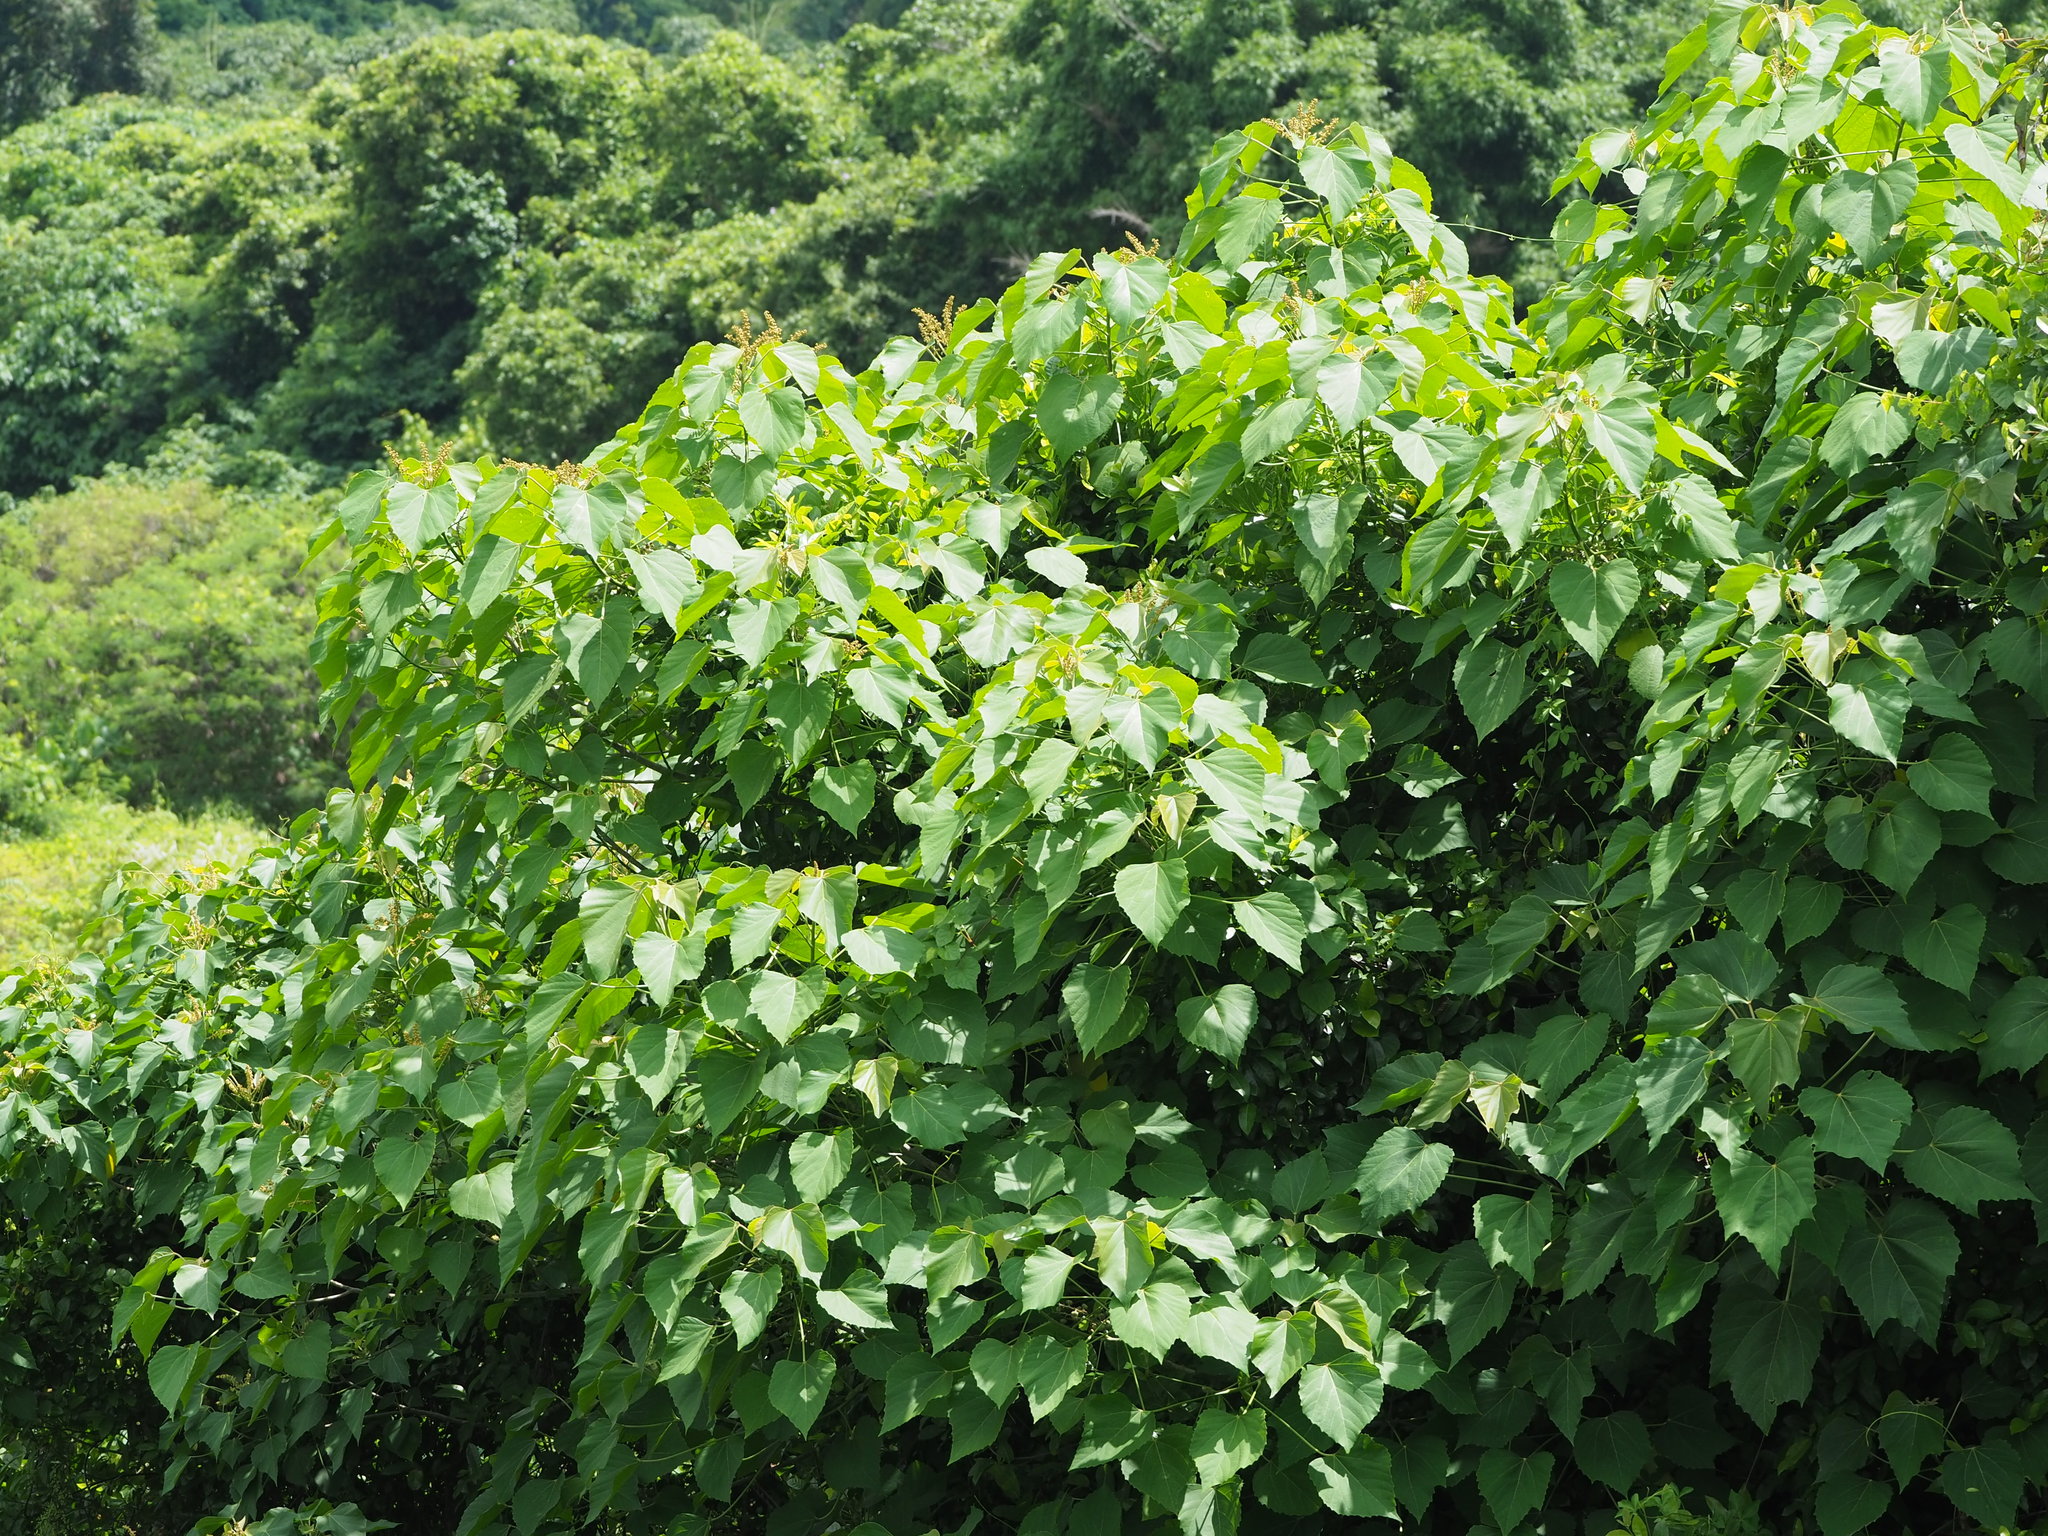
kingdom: Plantae
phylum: Tracheophyta
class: Magnoliopsida
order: Malpighiales
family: Euphorbiaceae
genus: Melanolepis
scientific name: Melanolepis multiglandulosa
